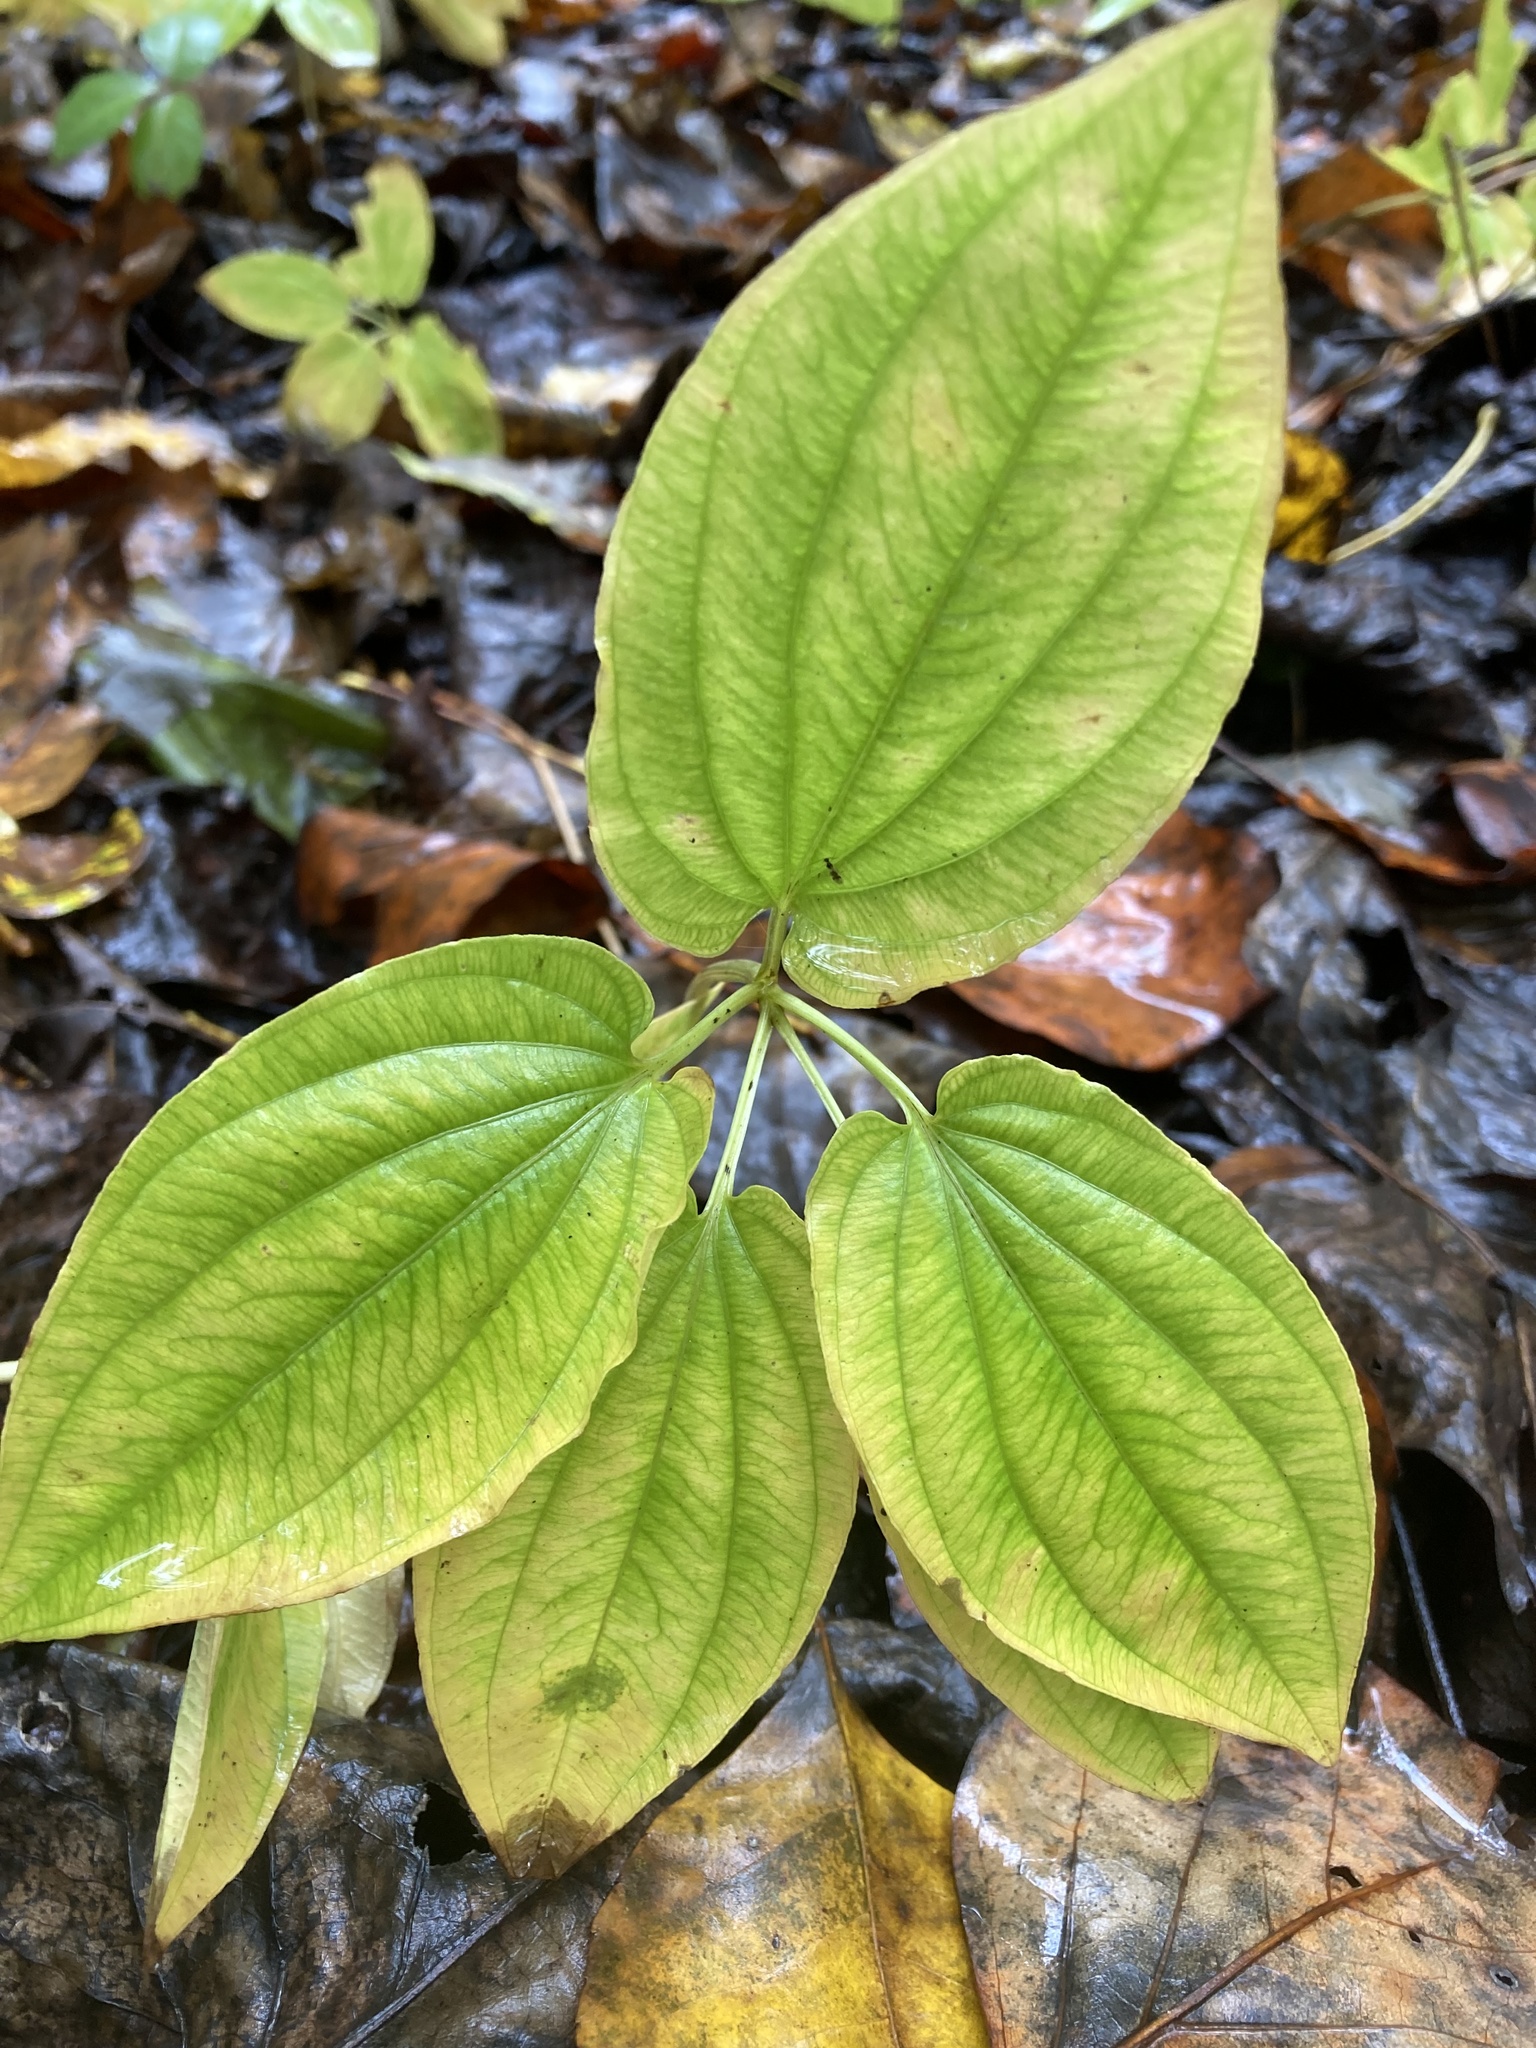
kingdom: Plantae
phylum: Tracheophyta
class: Liliopsida
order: Pandanales
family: Stemonaceae
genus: Croomia
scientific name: Croomia pauciflora
